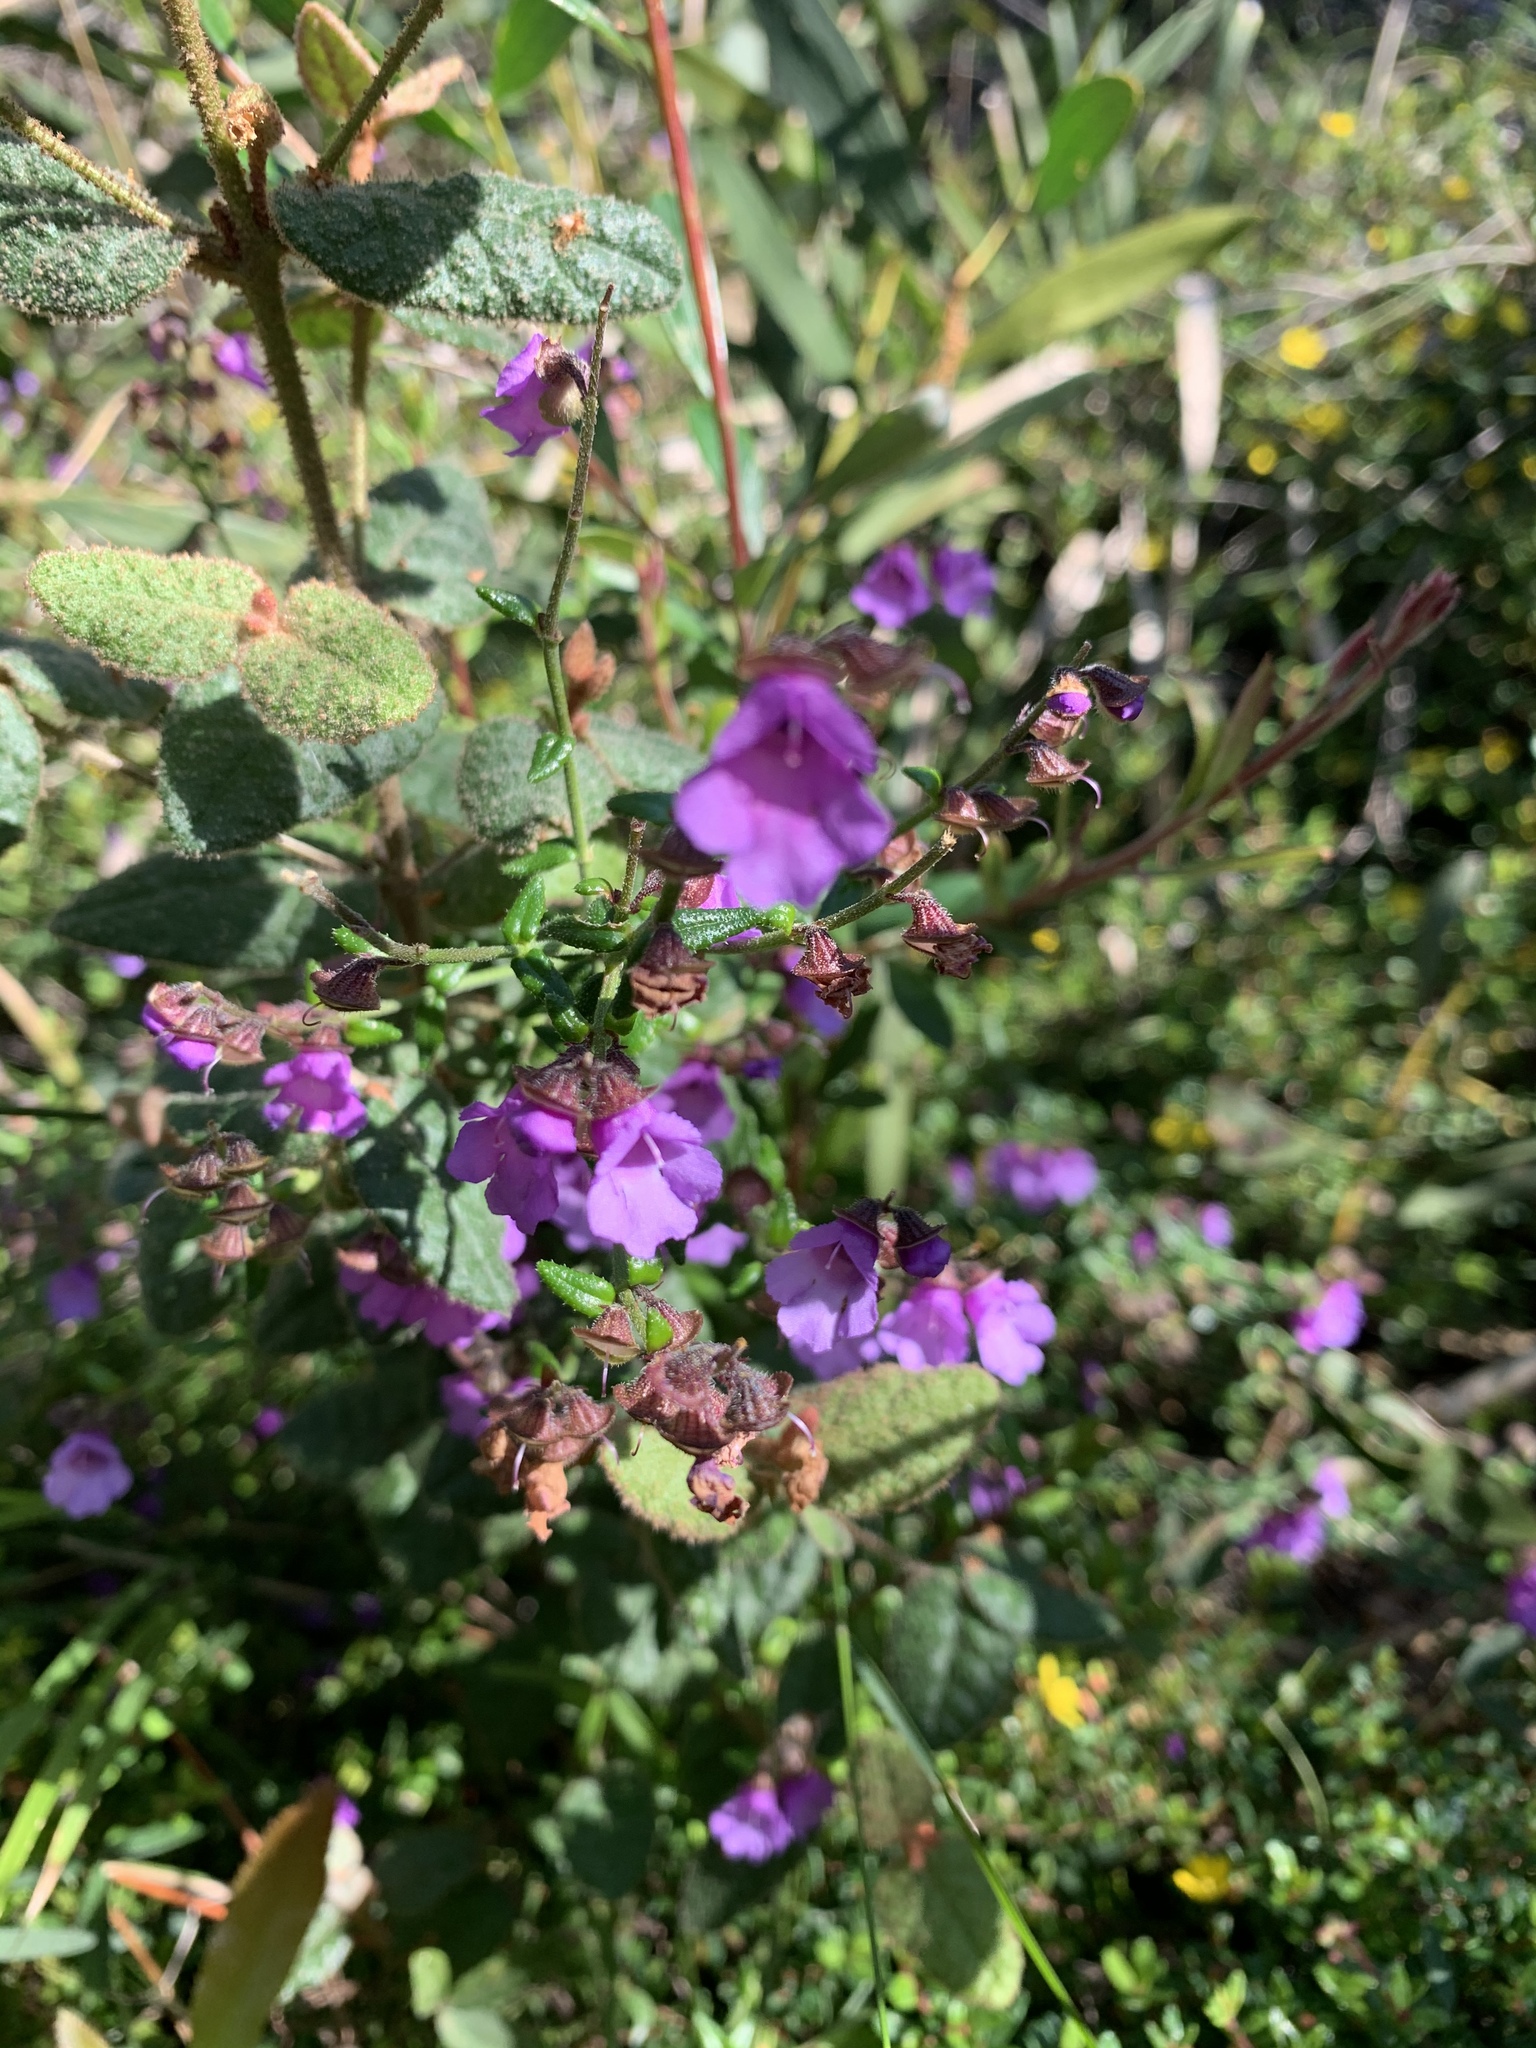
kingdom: Plantae
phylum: Tracheophyta
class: Magnoliopsida
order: Lamiales
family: Lamiaceae
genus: Prostanthera
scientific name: Prostanthera denticulata
